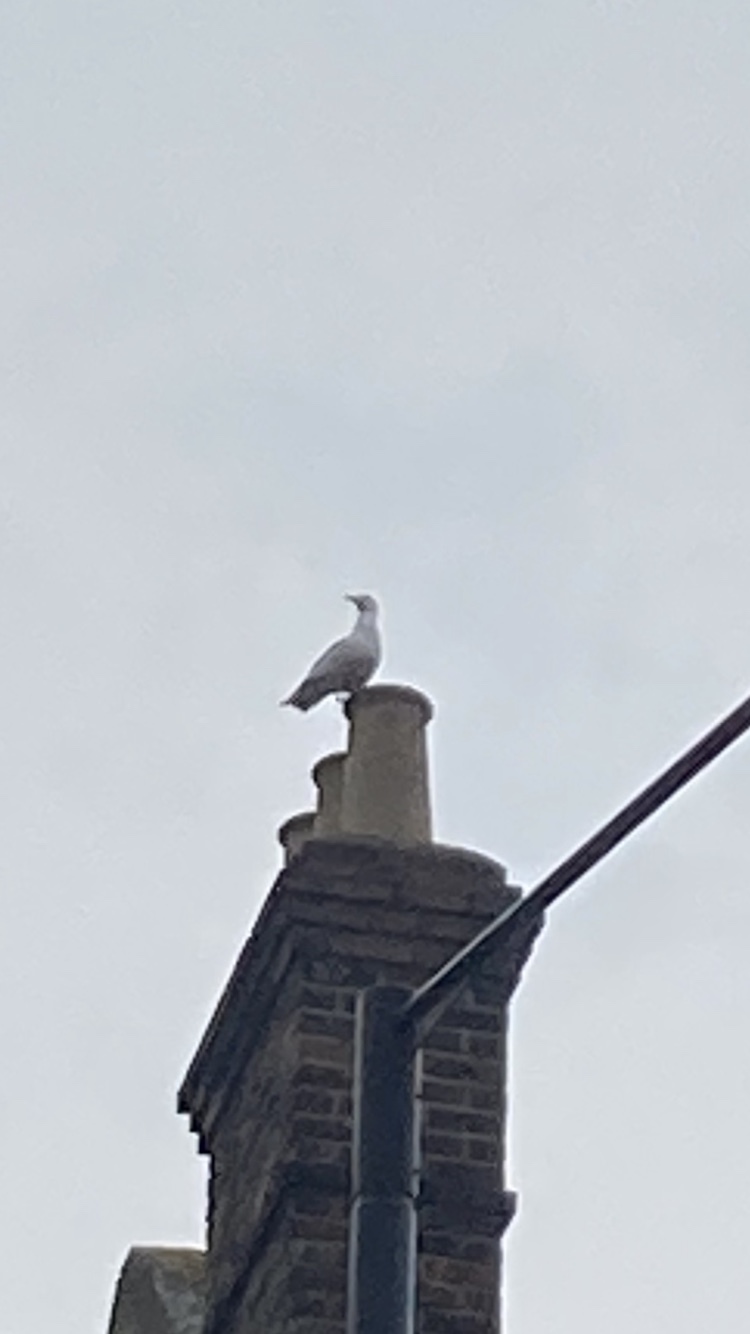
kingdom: Animalia
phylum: Chordata
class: Aves
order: Charadriiformes
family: Laridae
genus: Larus
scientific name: Larus argentatus
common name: Herring gull
